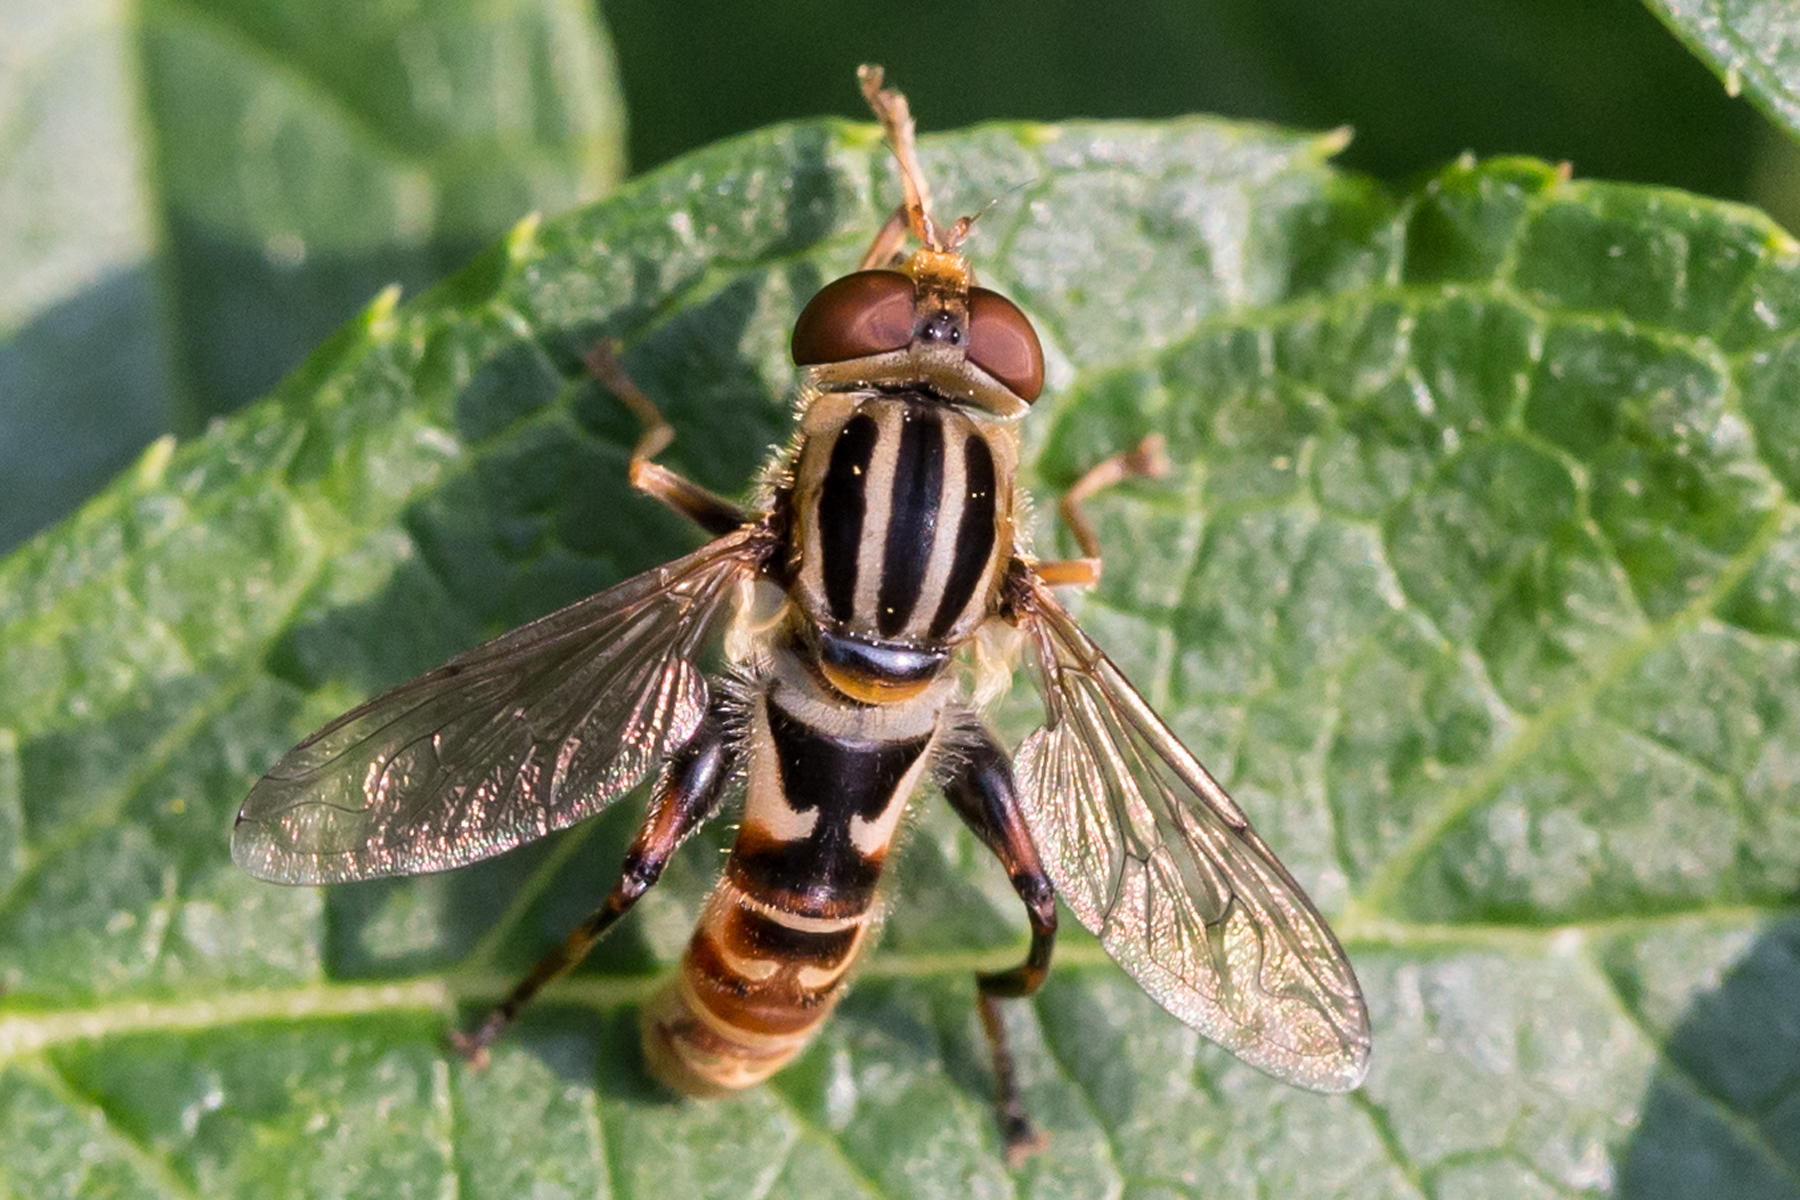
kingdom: Animalia
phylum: Arthropoda
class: Insecta
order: Diptera
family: Syrphidae
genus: Anasimyia
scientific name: Anasimyia chrysostomus
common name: Lump-legged swamp fly
